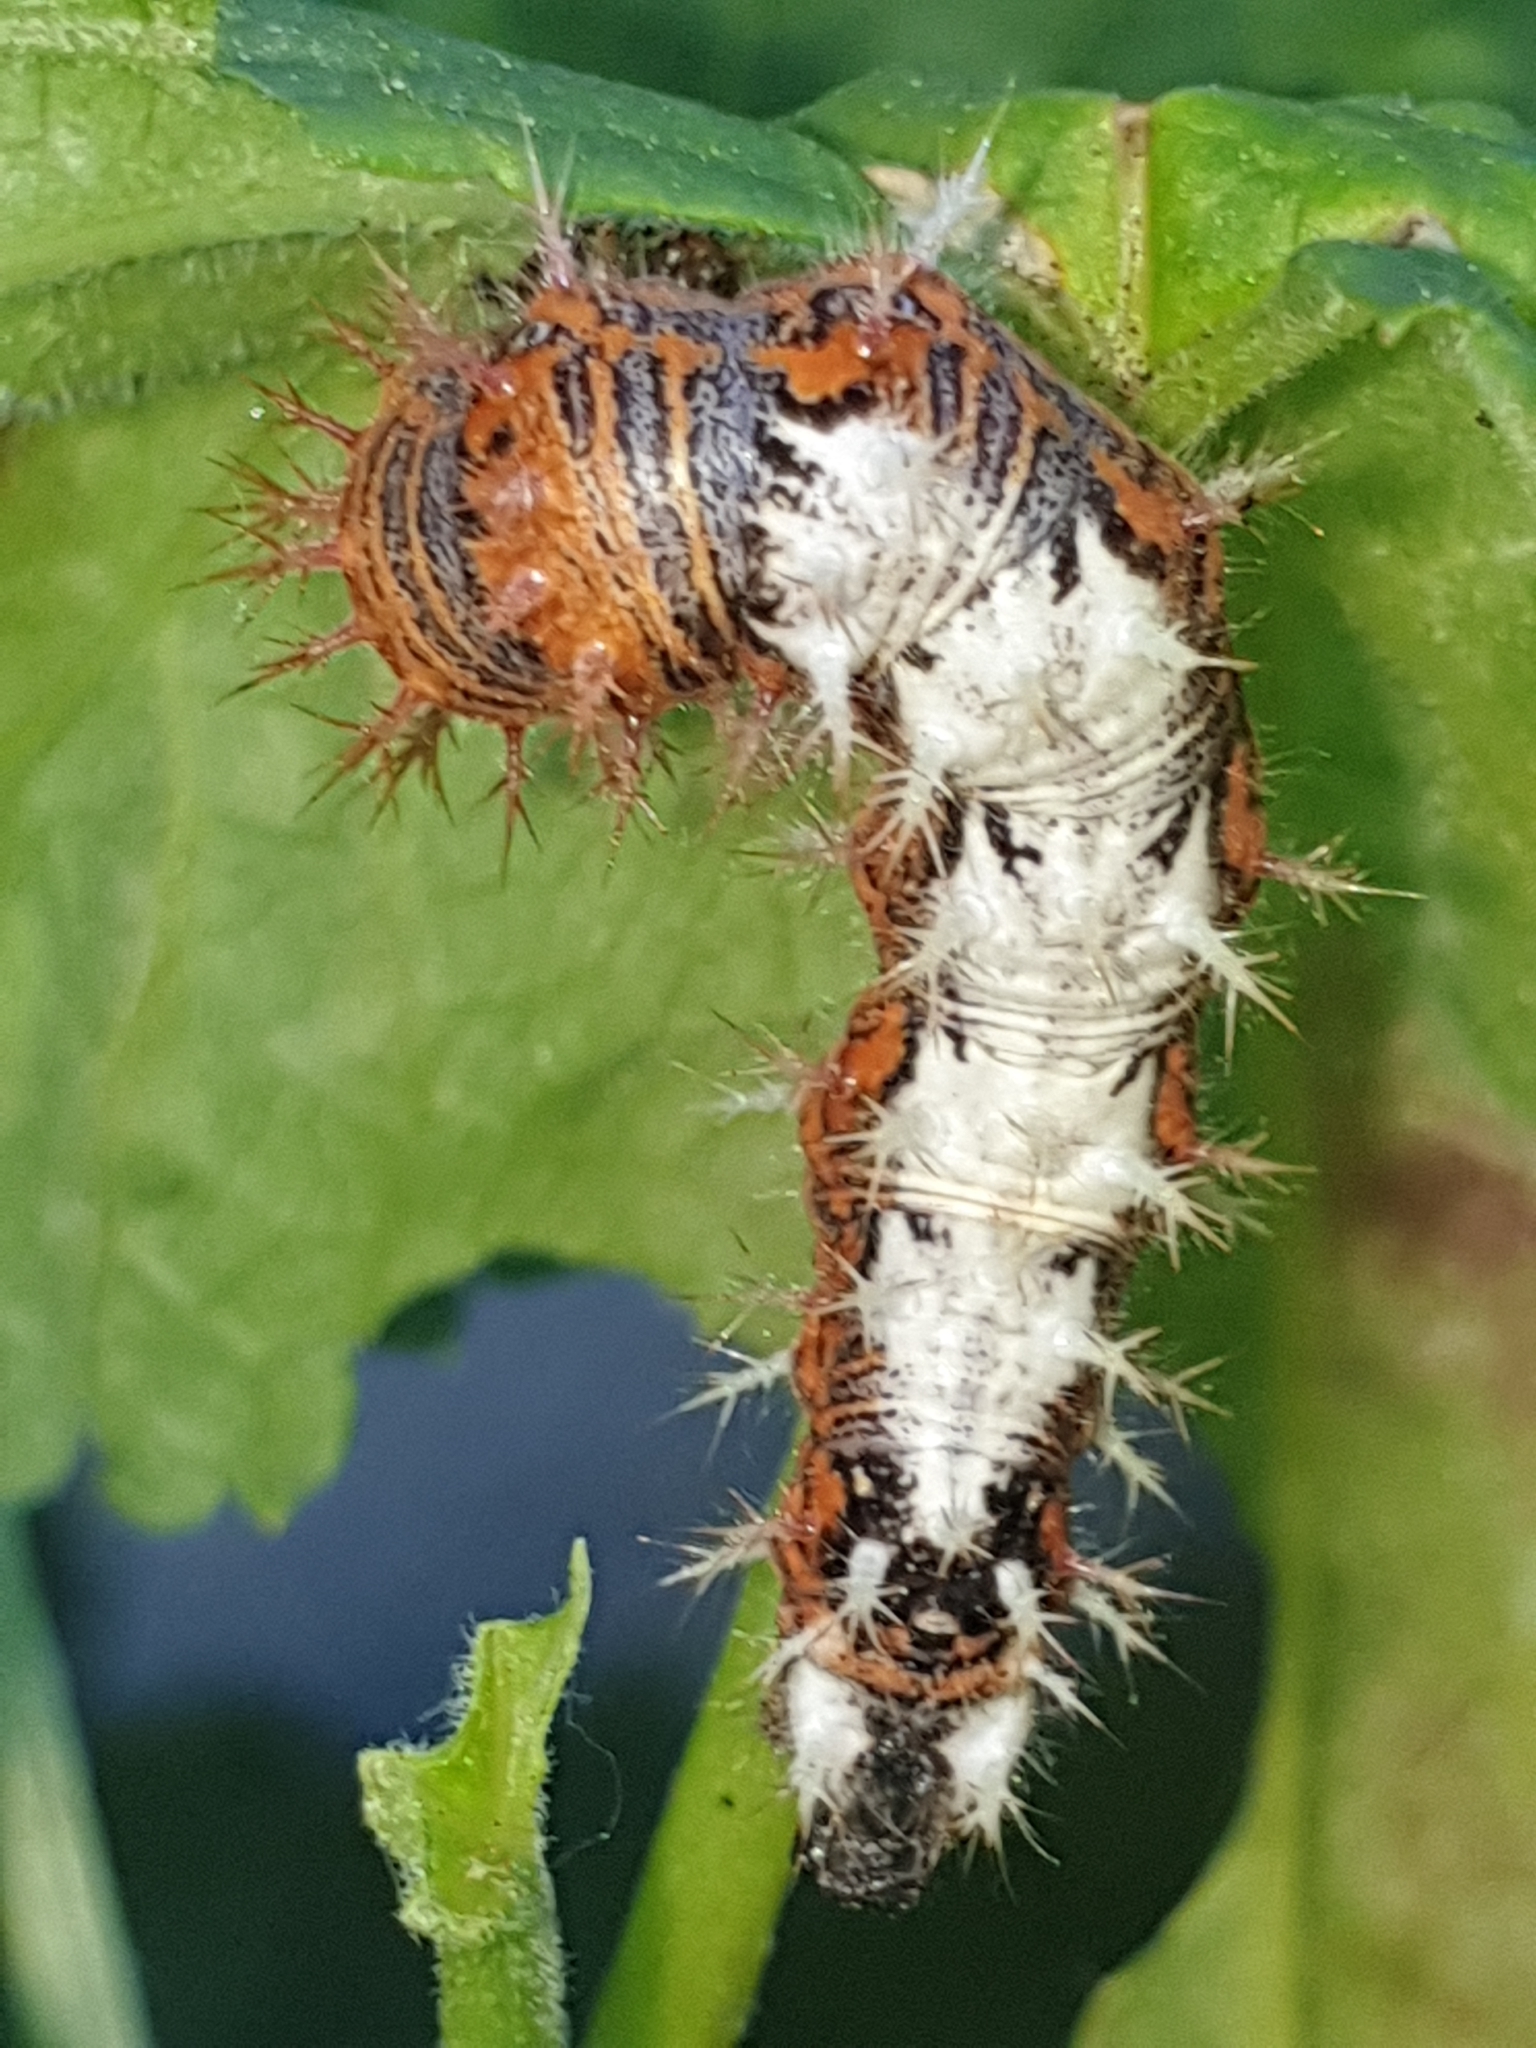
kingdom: Animalia
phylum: Arthropoda
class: Insecta
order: Lepidoptera
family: Nymphalidae
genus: Polygonia
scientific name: Polygonia c-album
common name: Comma
